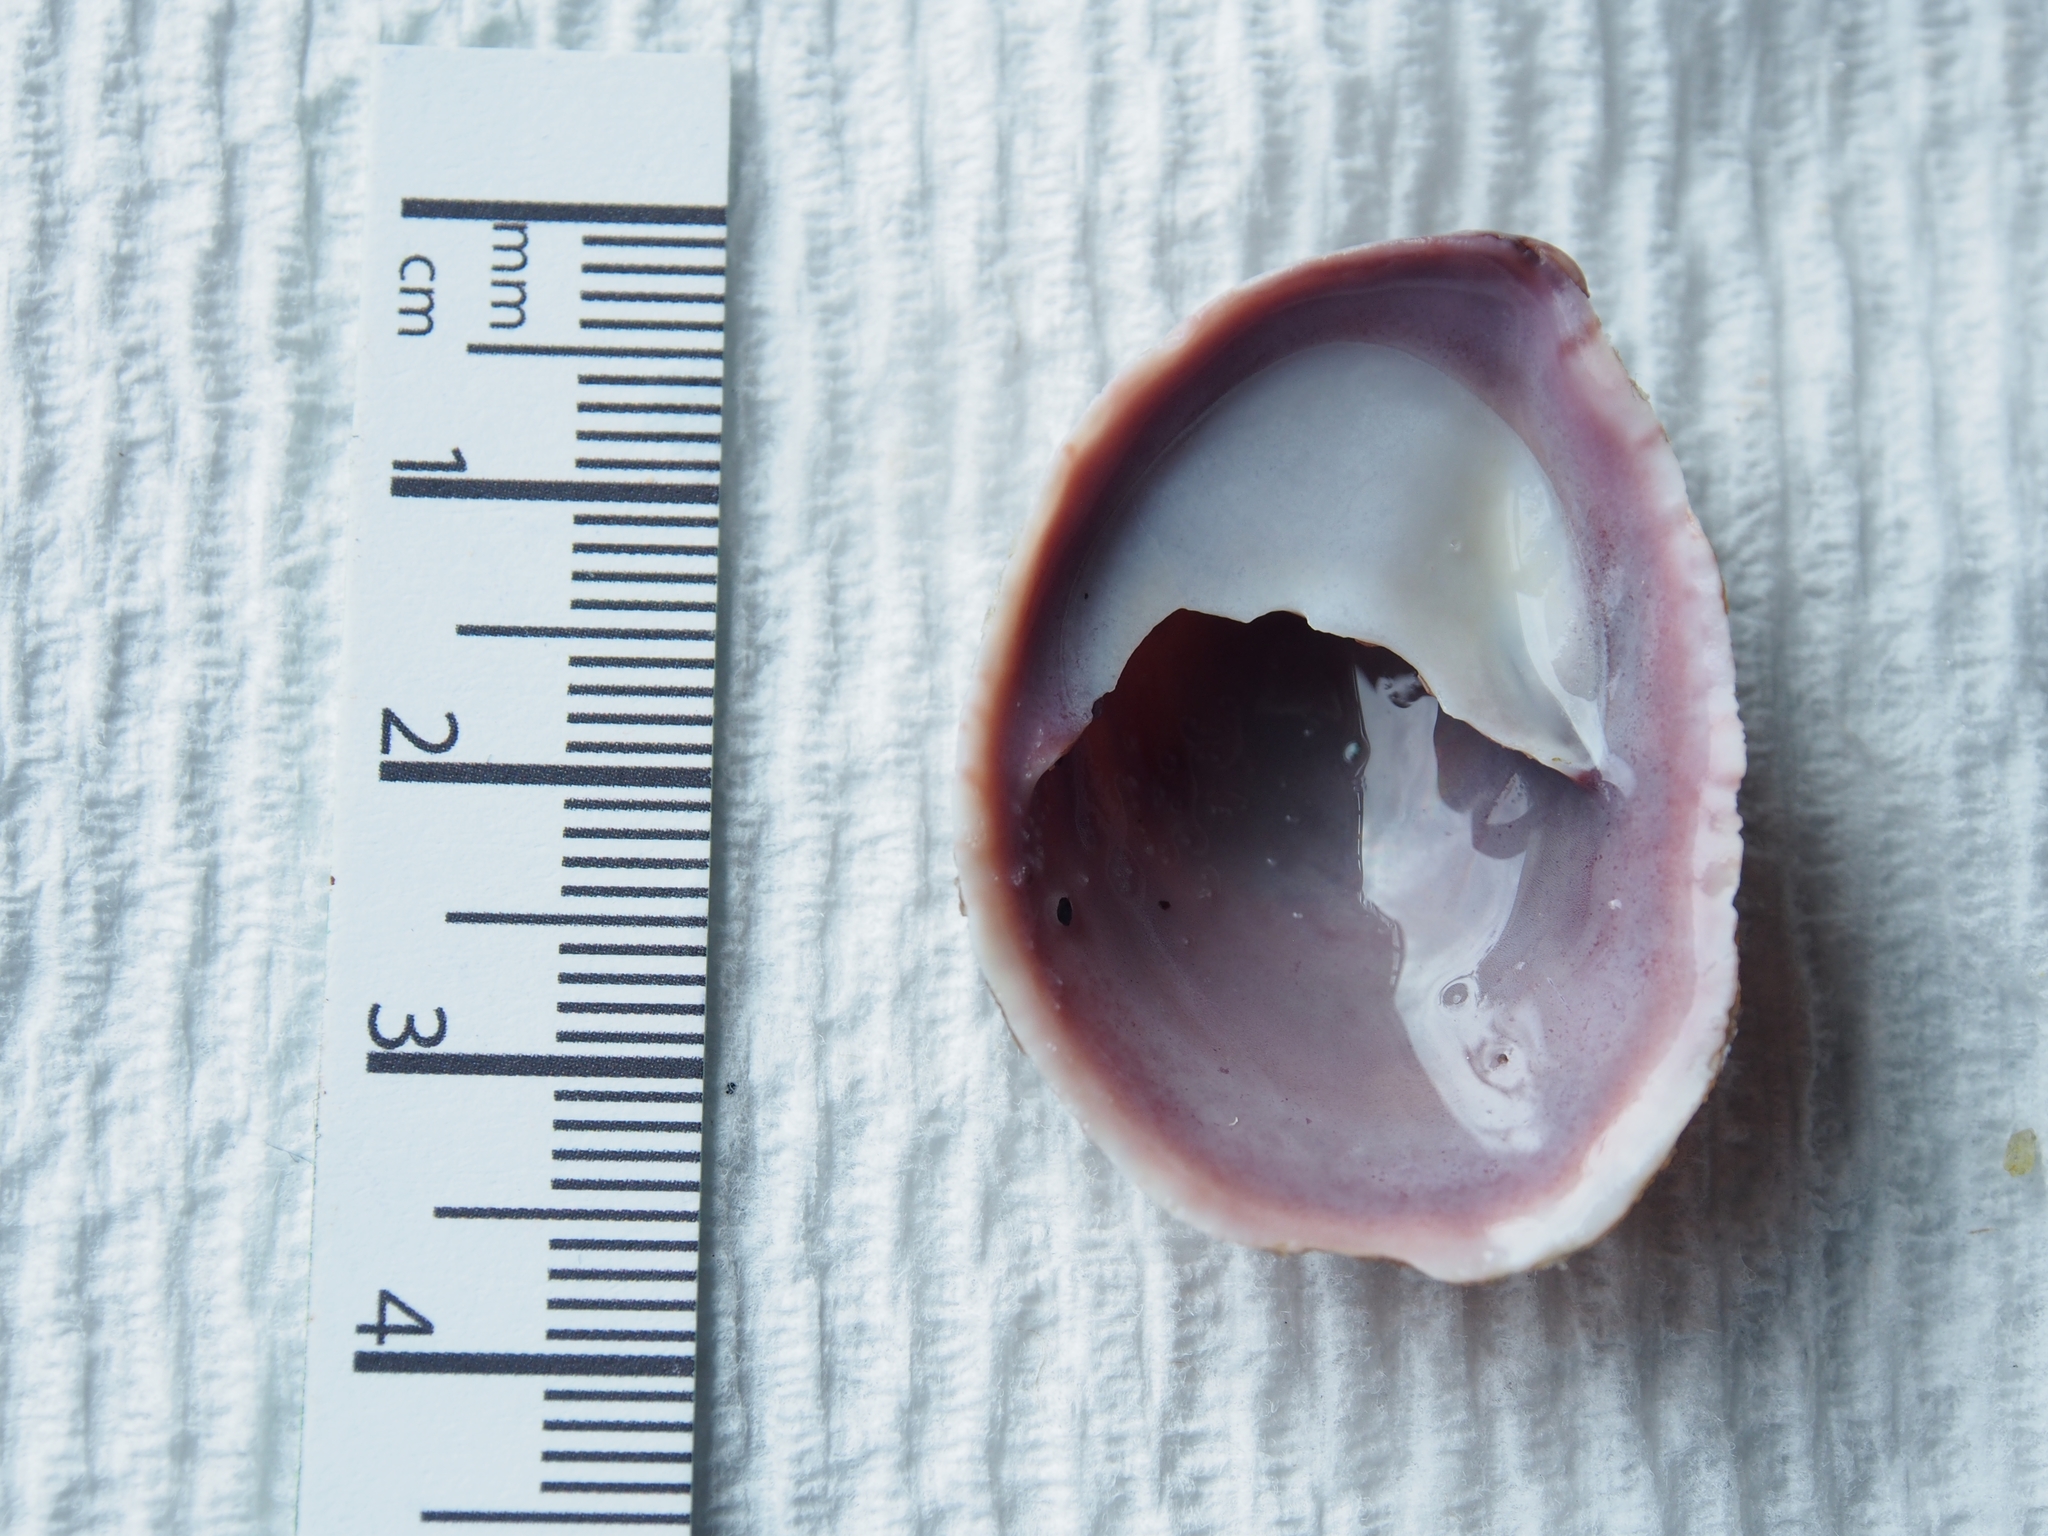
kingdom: Animalia
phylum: Mollusca
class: Gastropoda
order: Littorinimorpha
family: Calyptraeidae
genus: Crepidula
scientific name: Crepidula fornicata
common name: Slipper limpet
